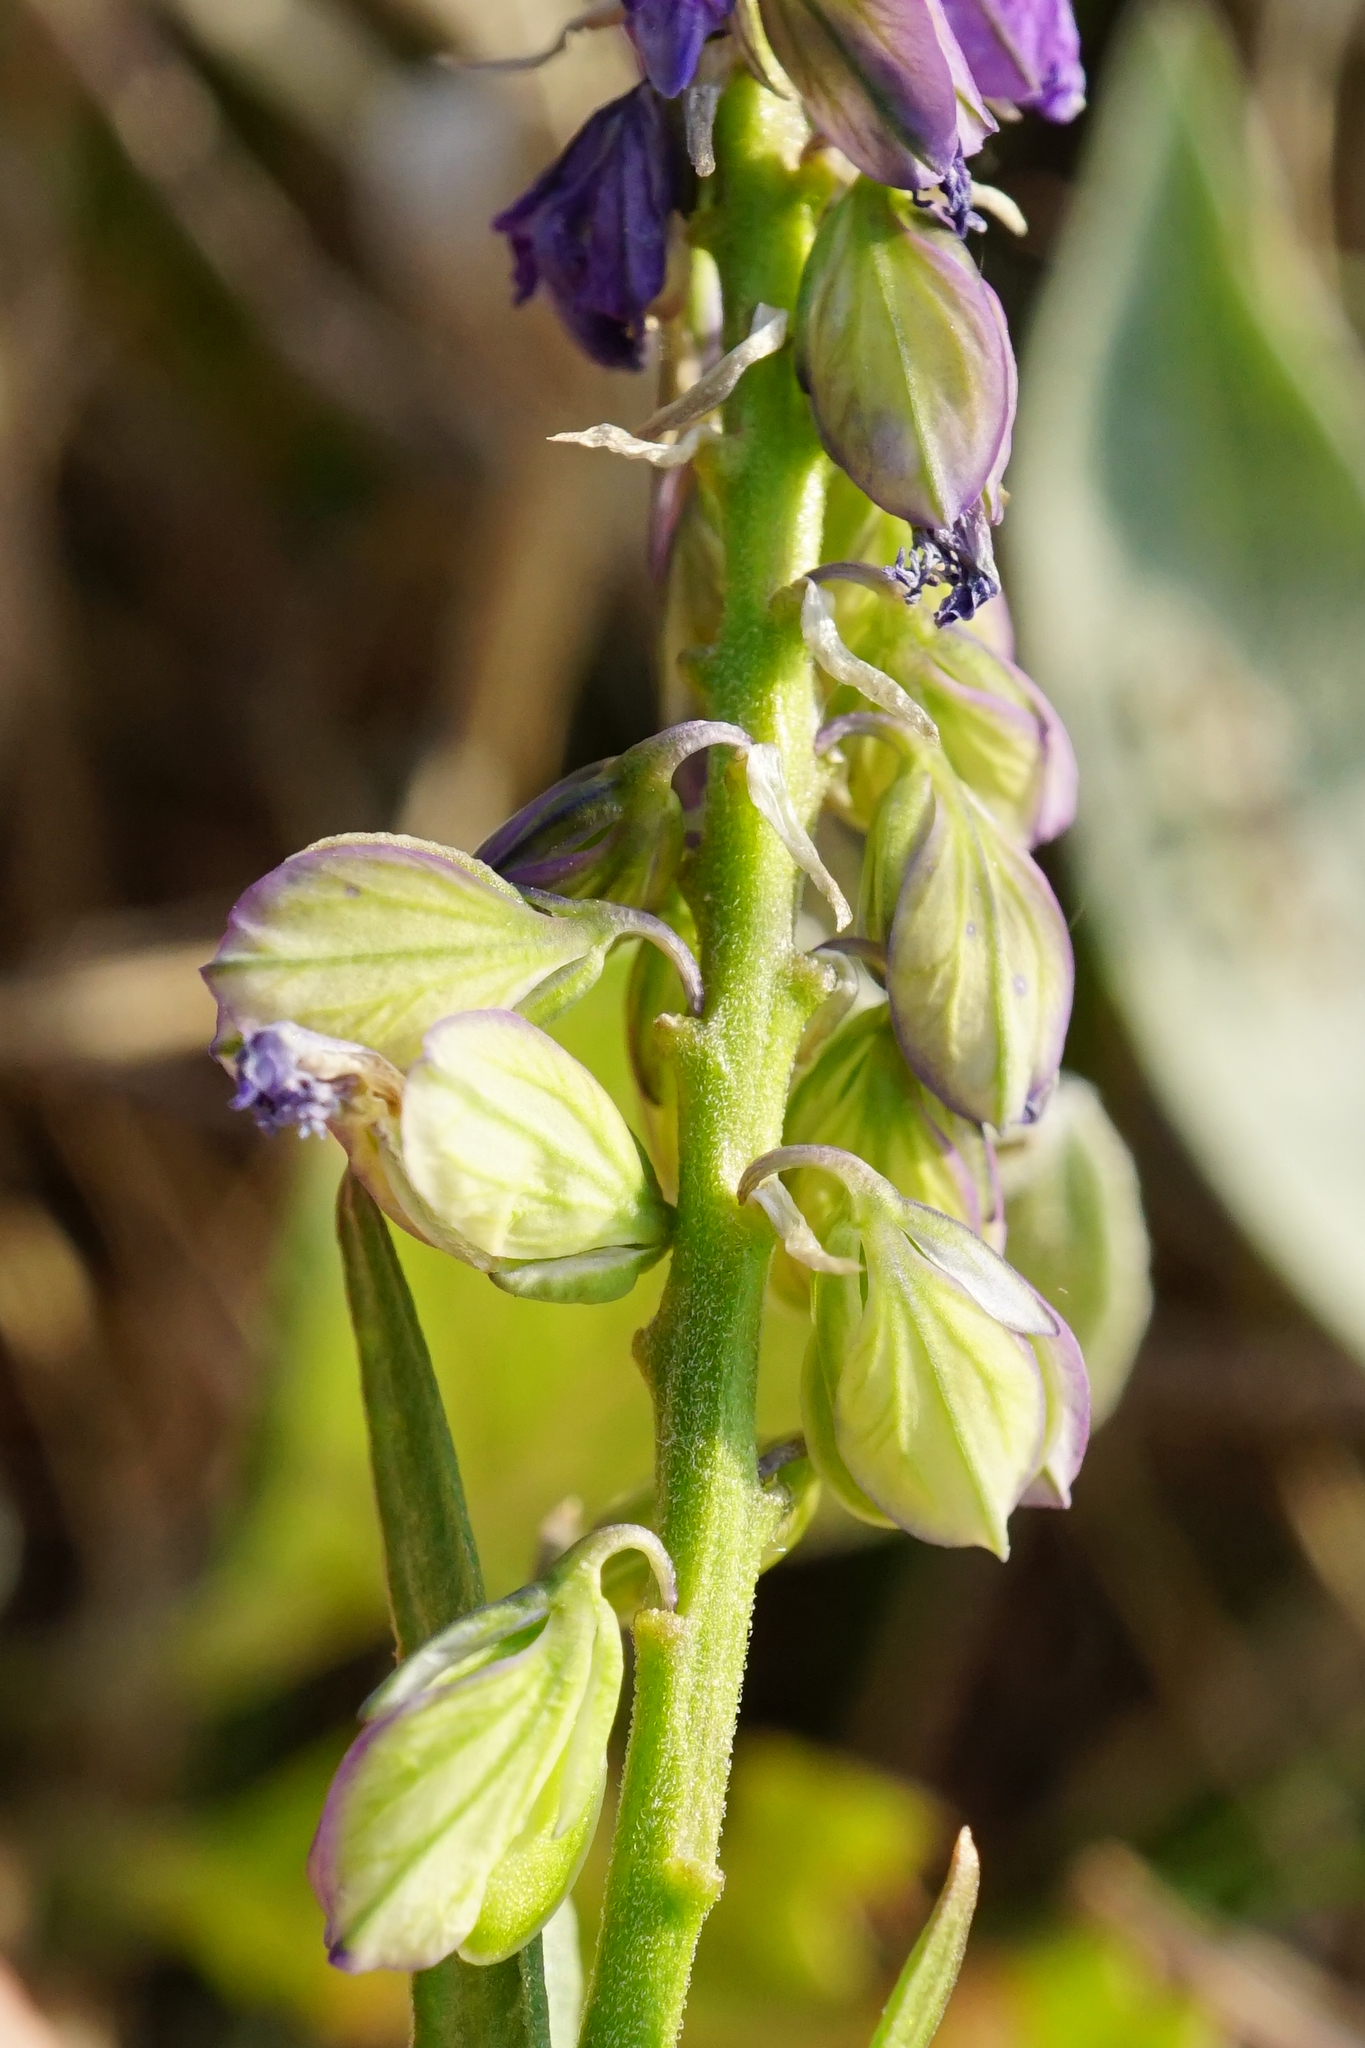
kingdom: Plantae
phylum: Tracheophyta
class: Magnoliopsida
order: Fabales
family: Polygalaceae
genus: Polygala
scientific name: Polygala comosa
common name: Tufted milkwort
